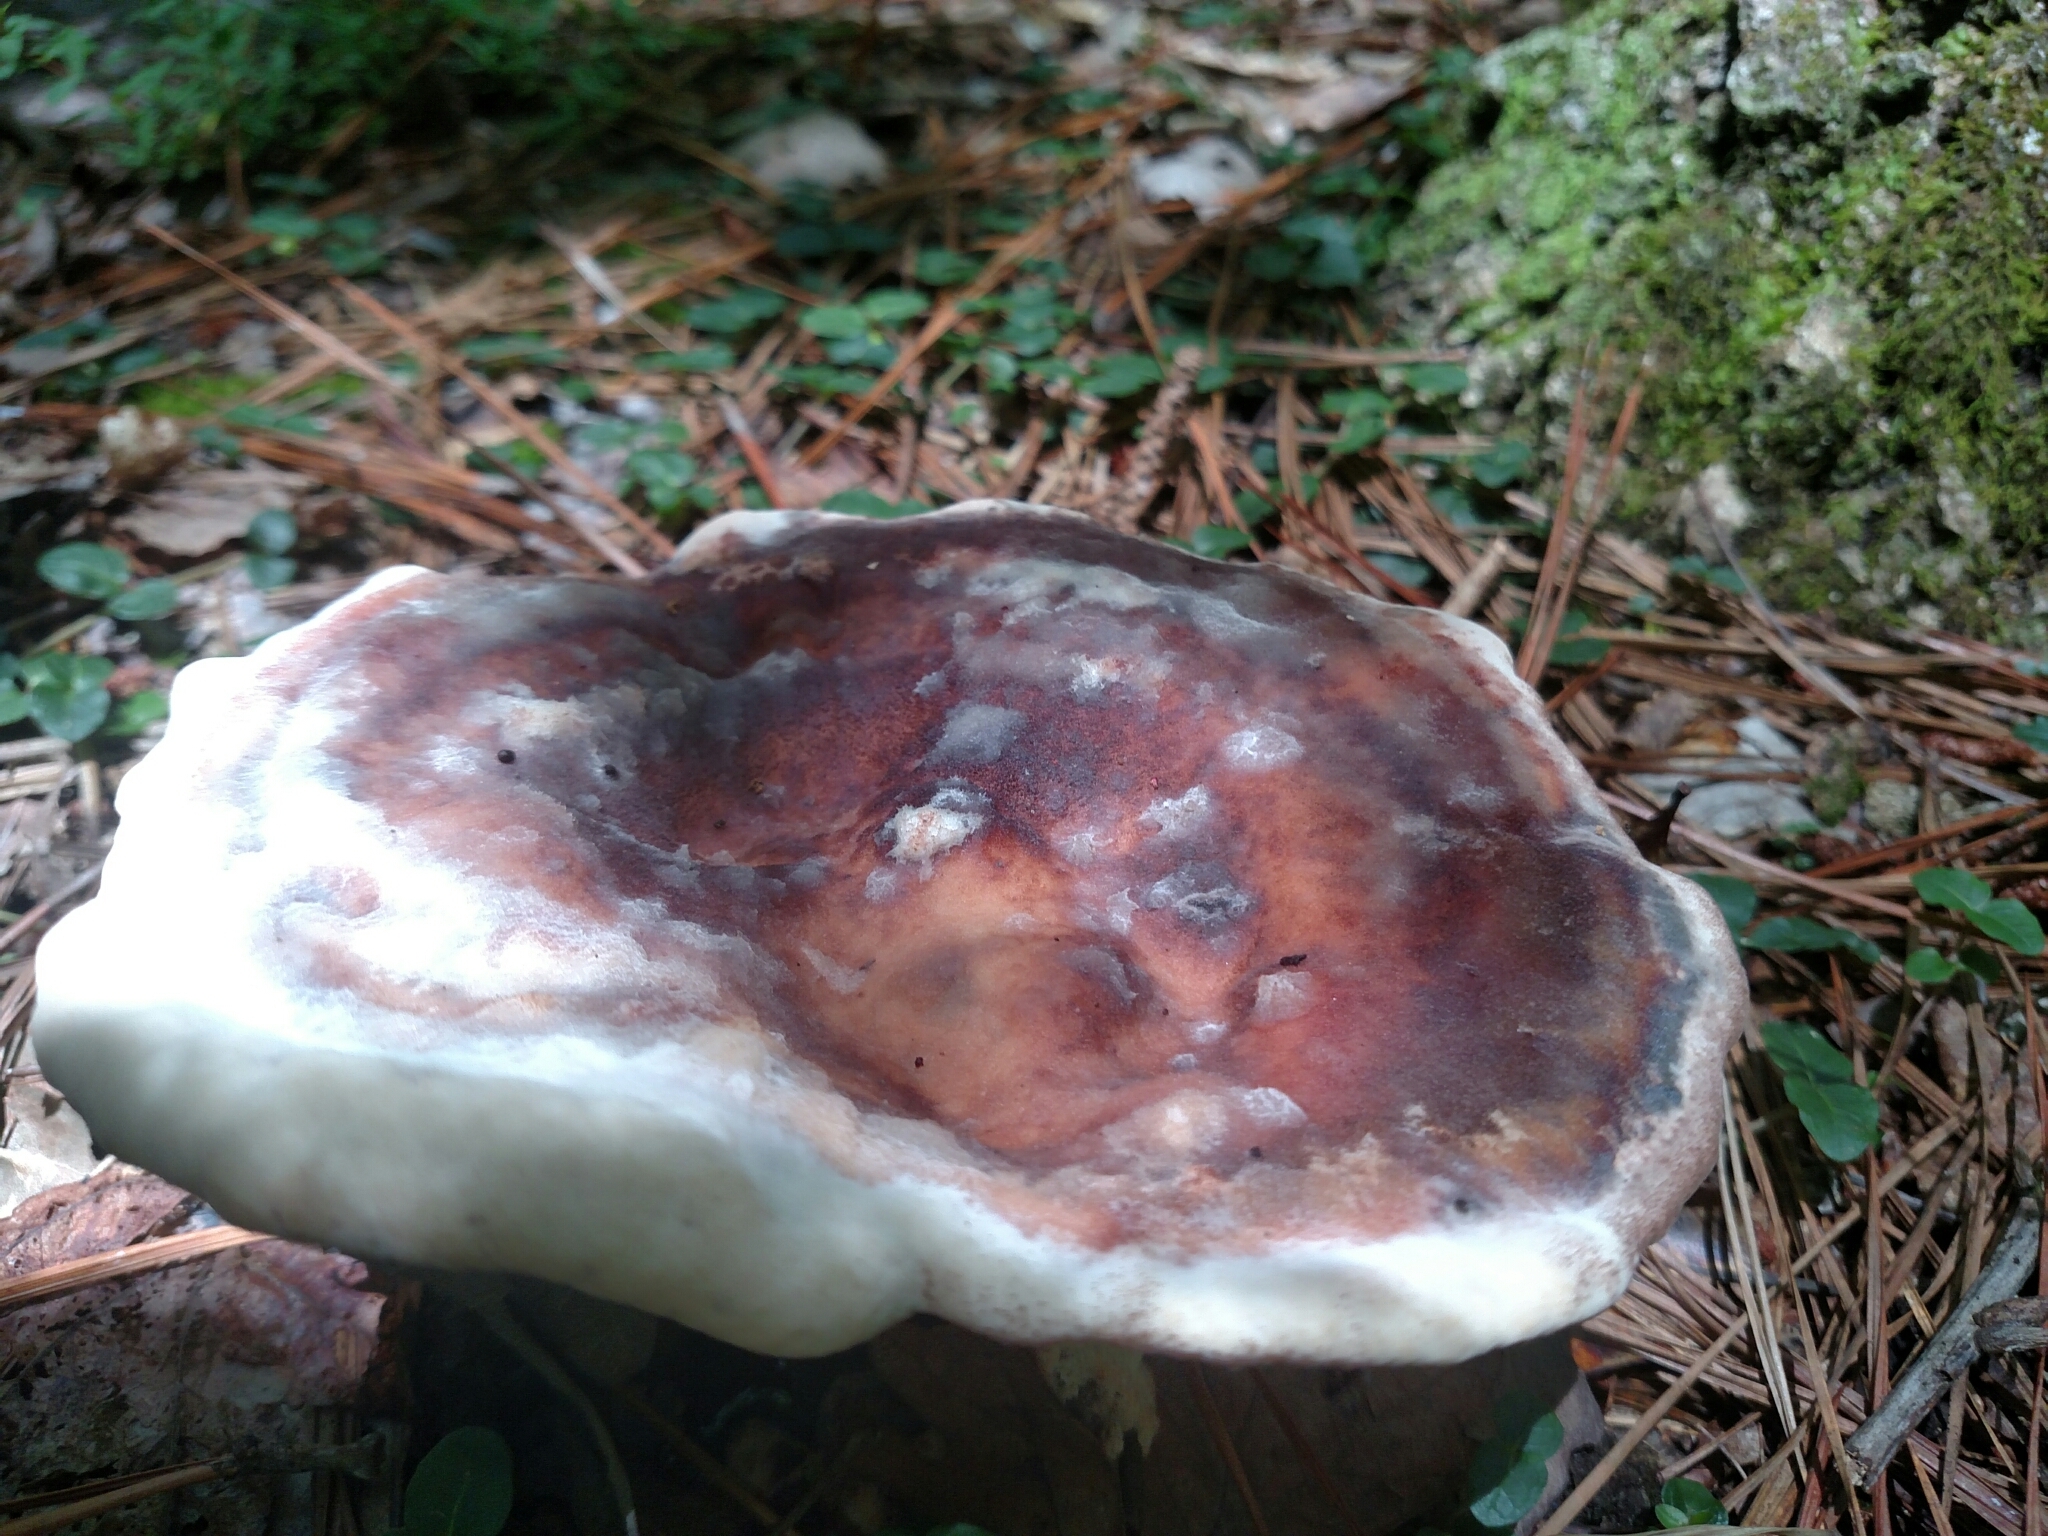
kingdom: Fungi
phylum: Basidiomycota
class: Agaricomycetes
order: Polyporales
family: Laetiporaceae
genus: Berkcurtia
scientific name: Berkcurtia persicina
